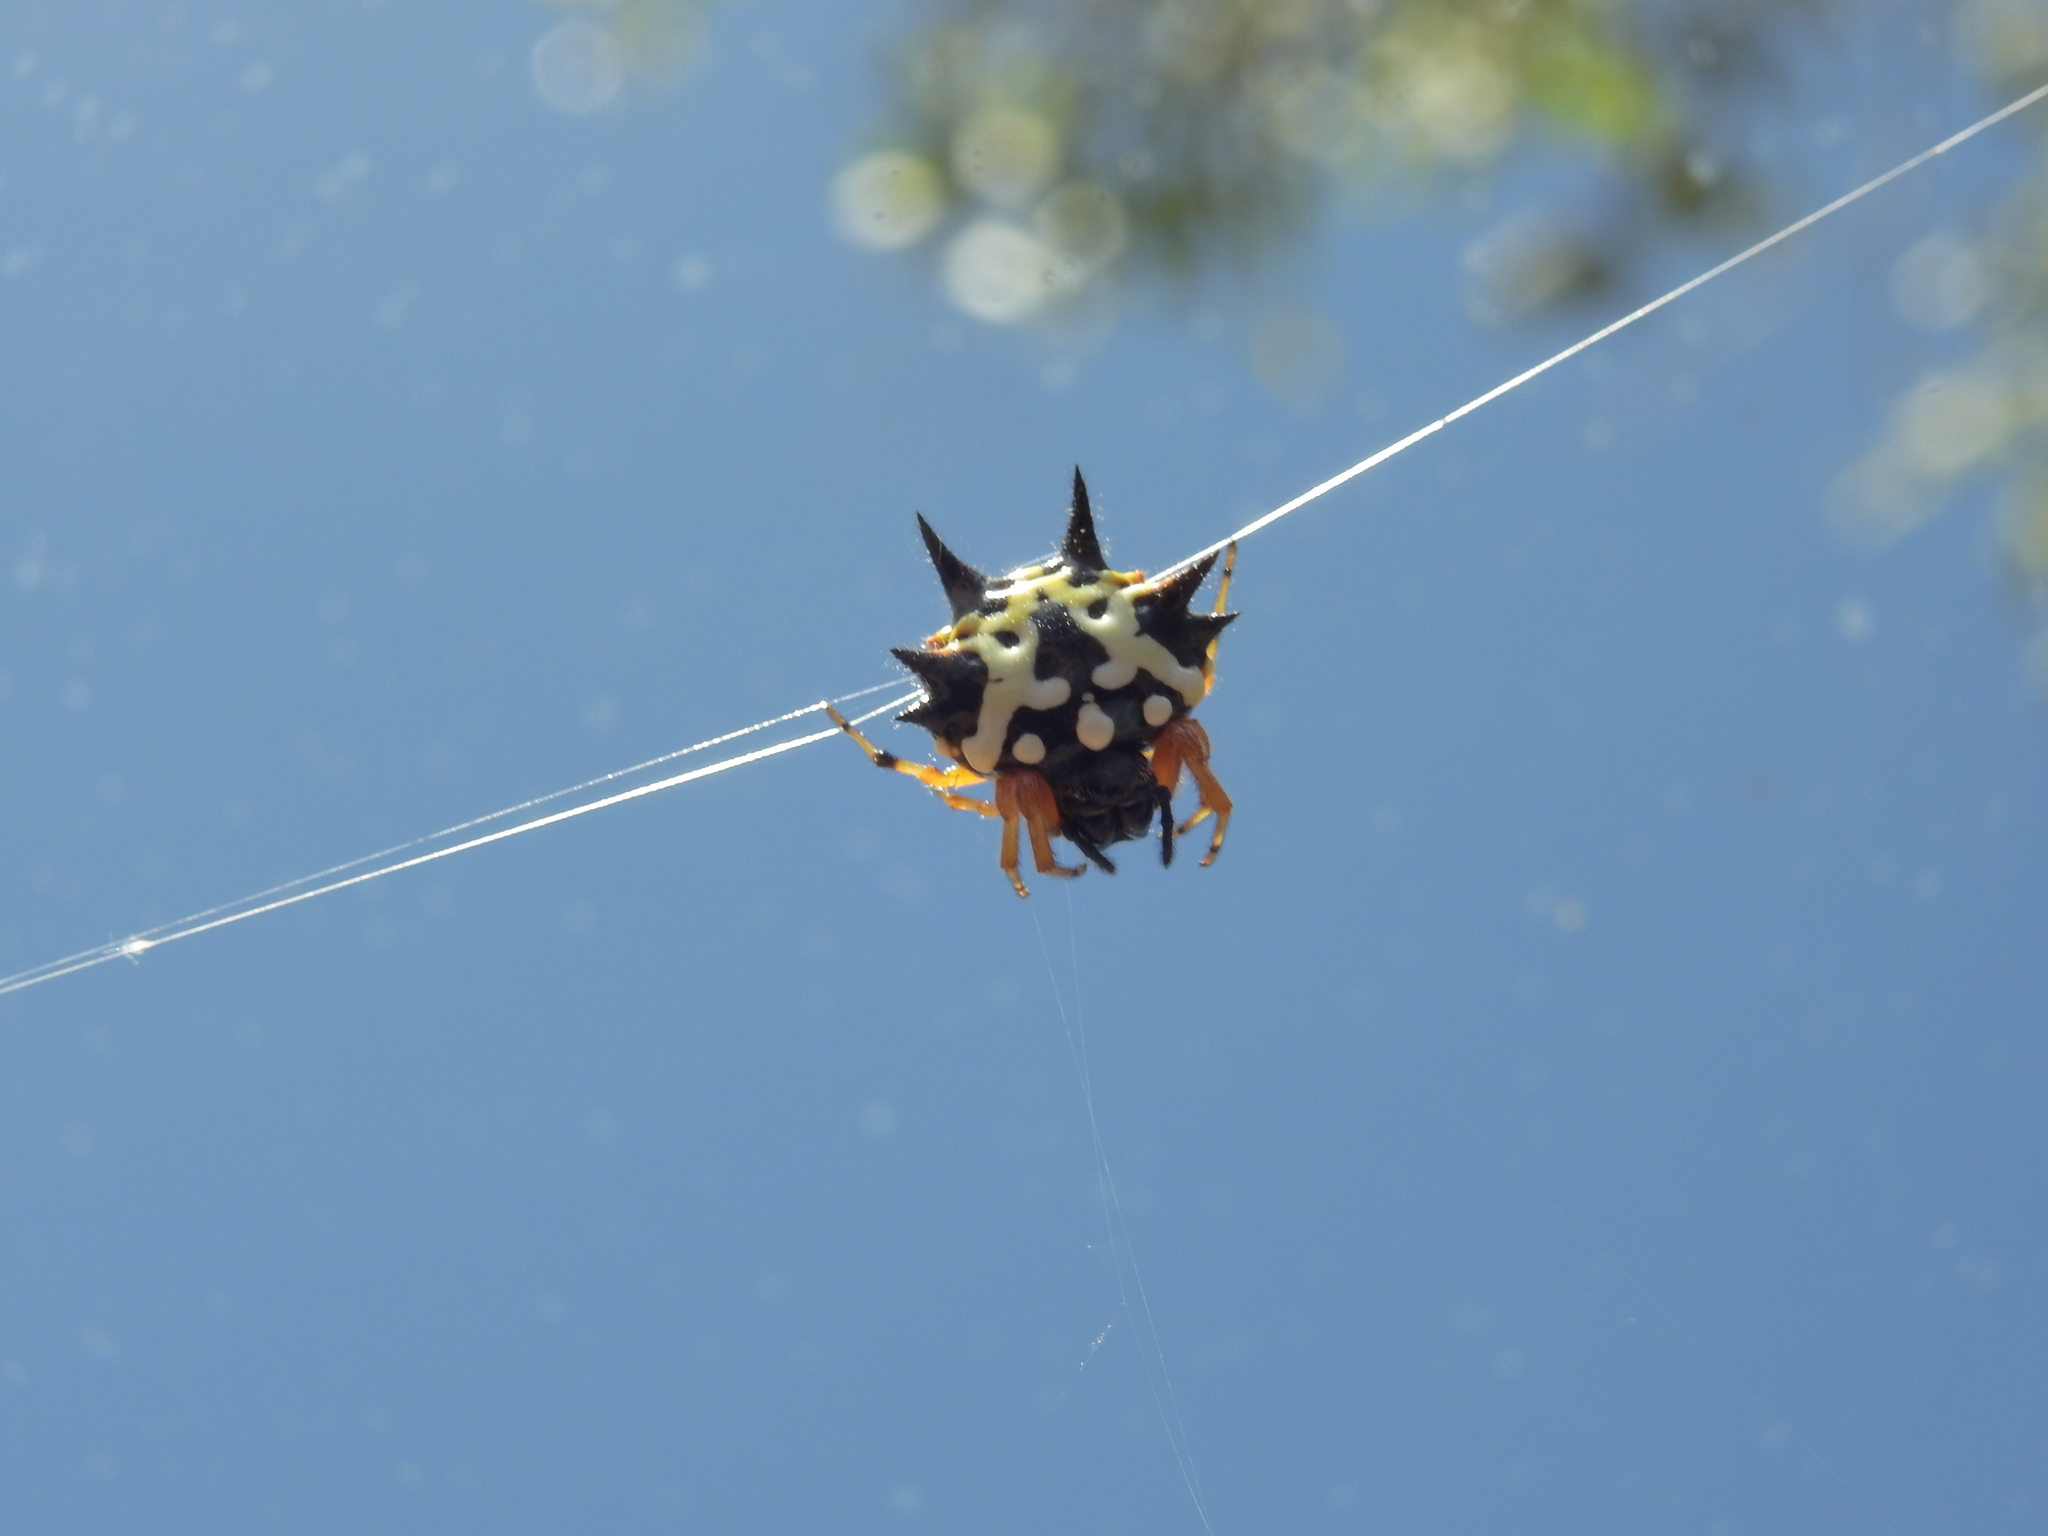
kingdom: Animalia
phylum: Arthropoda
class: Arachnida
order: Araneae
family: Araneidae
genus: Austracantha
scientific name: Austracantha minax
